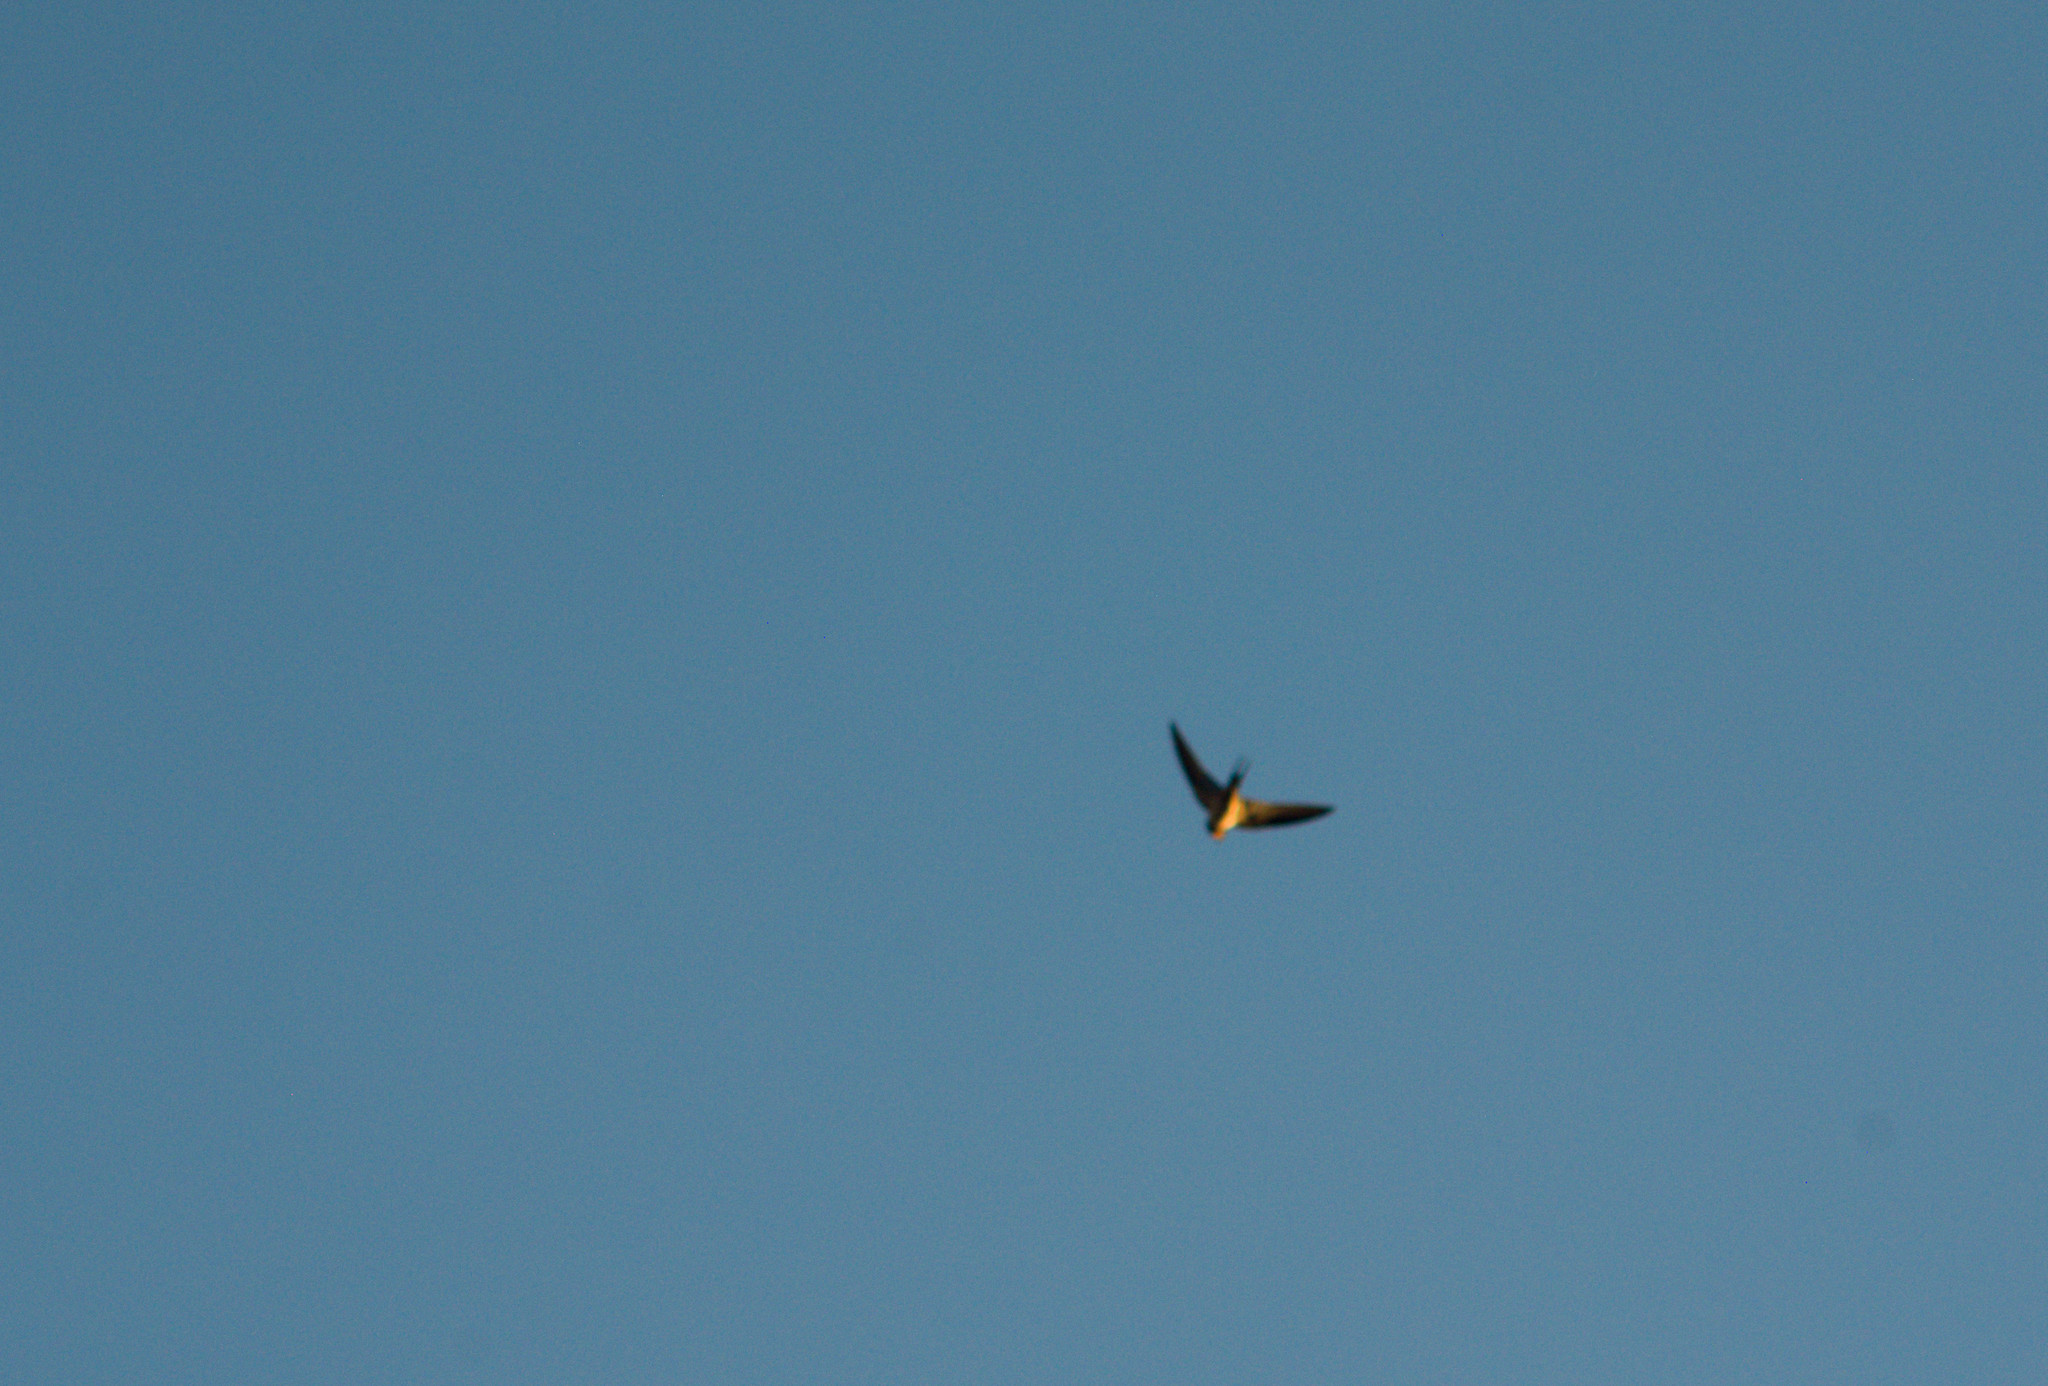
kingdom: Animalia
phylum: Chordata
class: Aves
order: Passeriformes
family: Hirundinidae
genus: Hirundo
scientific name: Hirundo rustica
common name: Barn swallow
